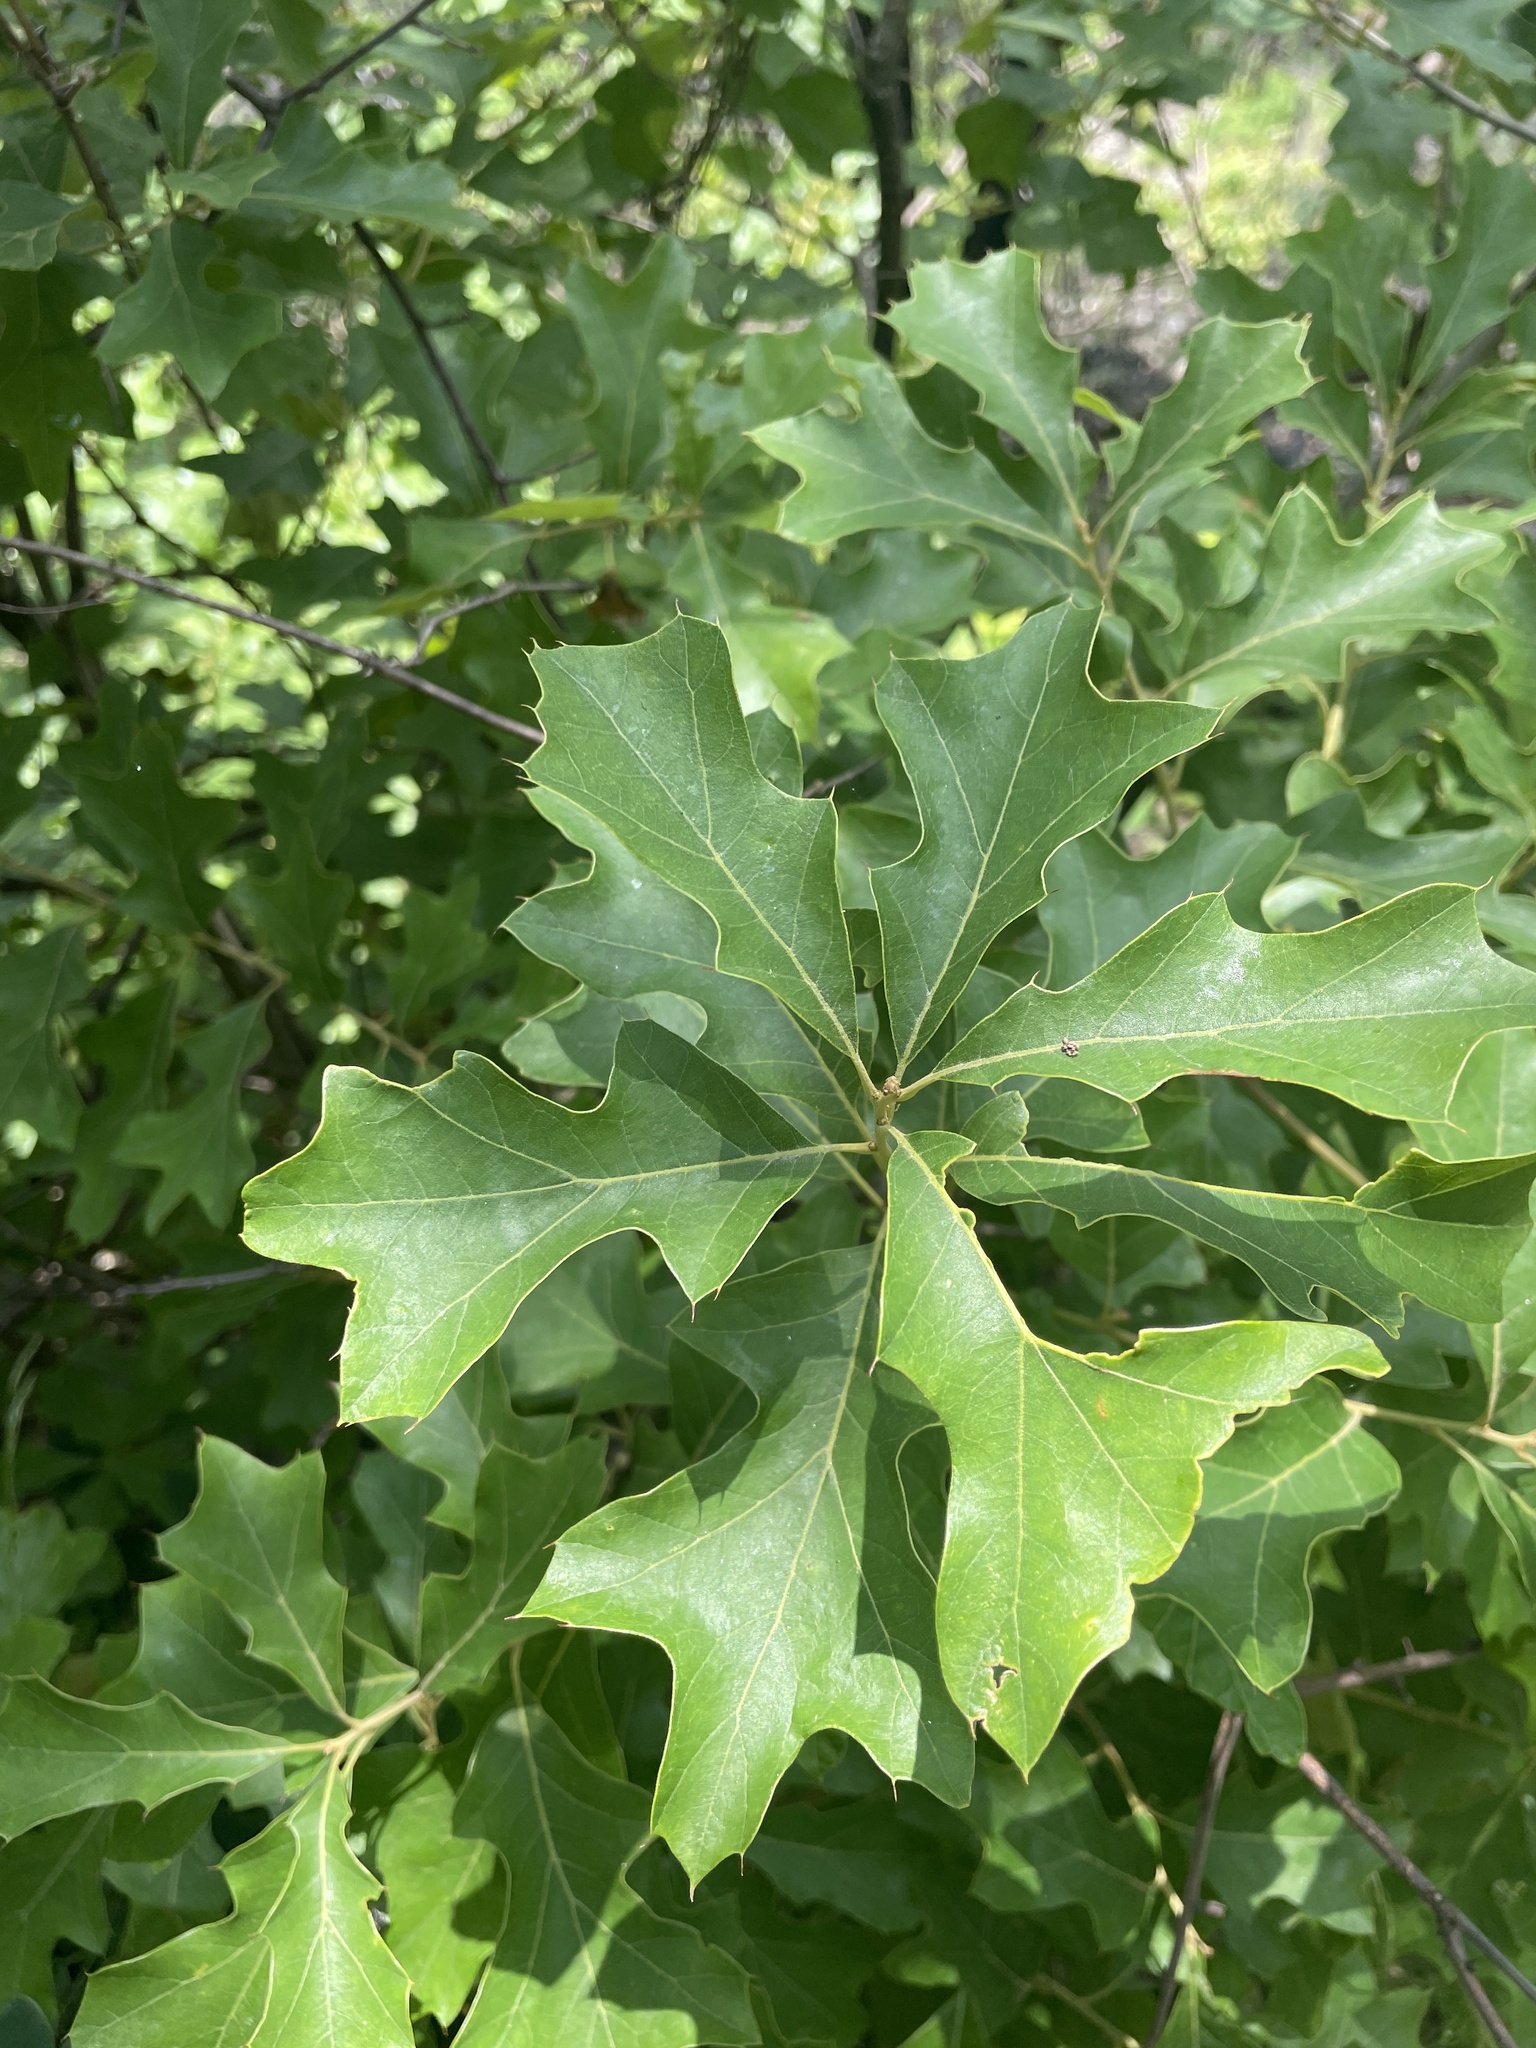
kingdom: Plantae
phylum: Tracheophyta
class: Magnoliopsida
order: Fagales
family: Fagaceae
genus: Quercus
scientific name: Quercus ilicifolia
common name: Bear oak
